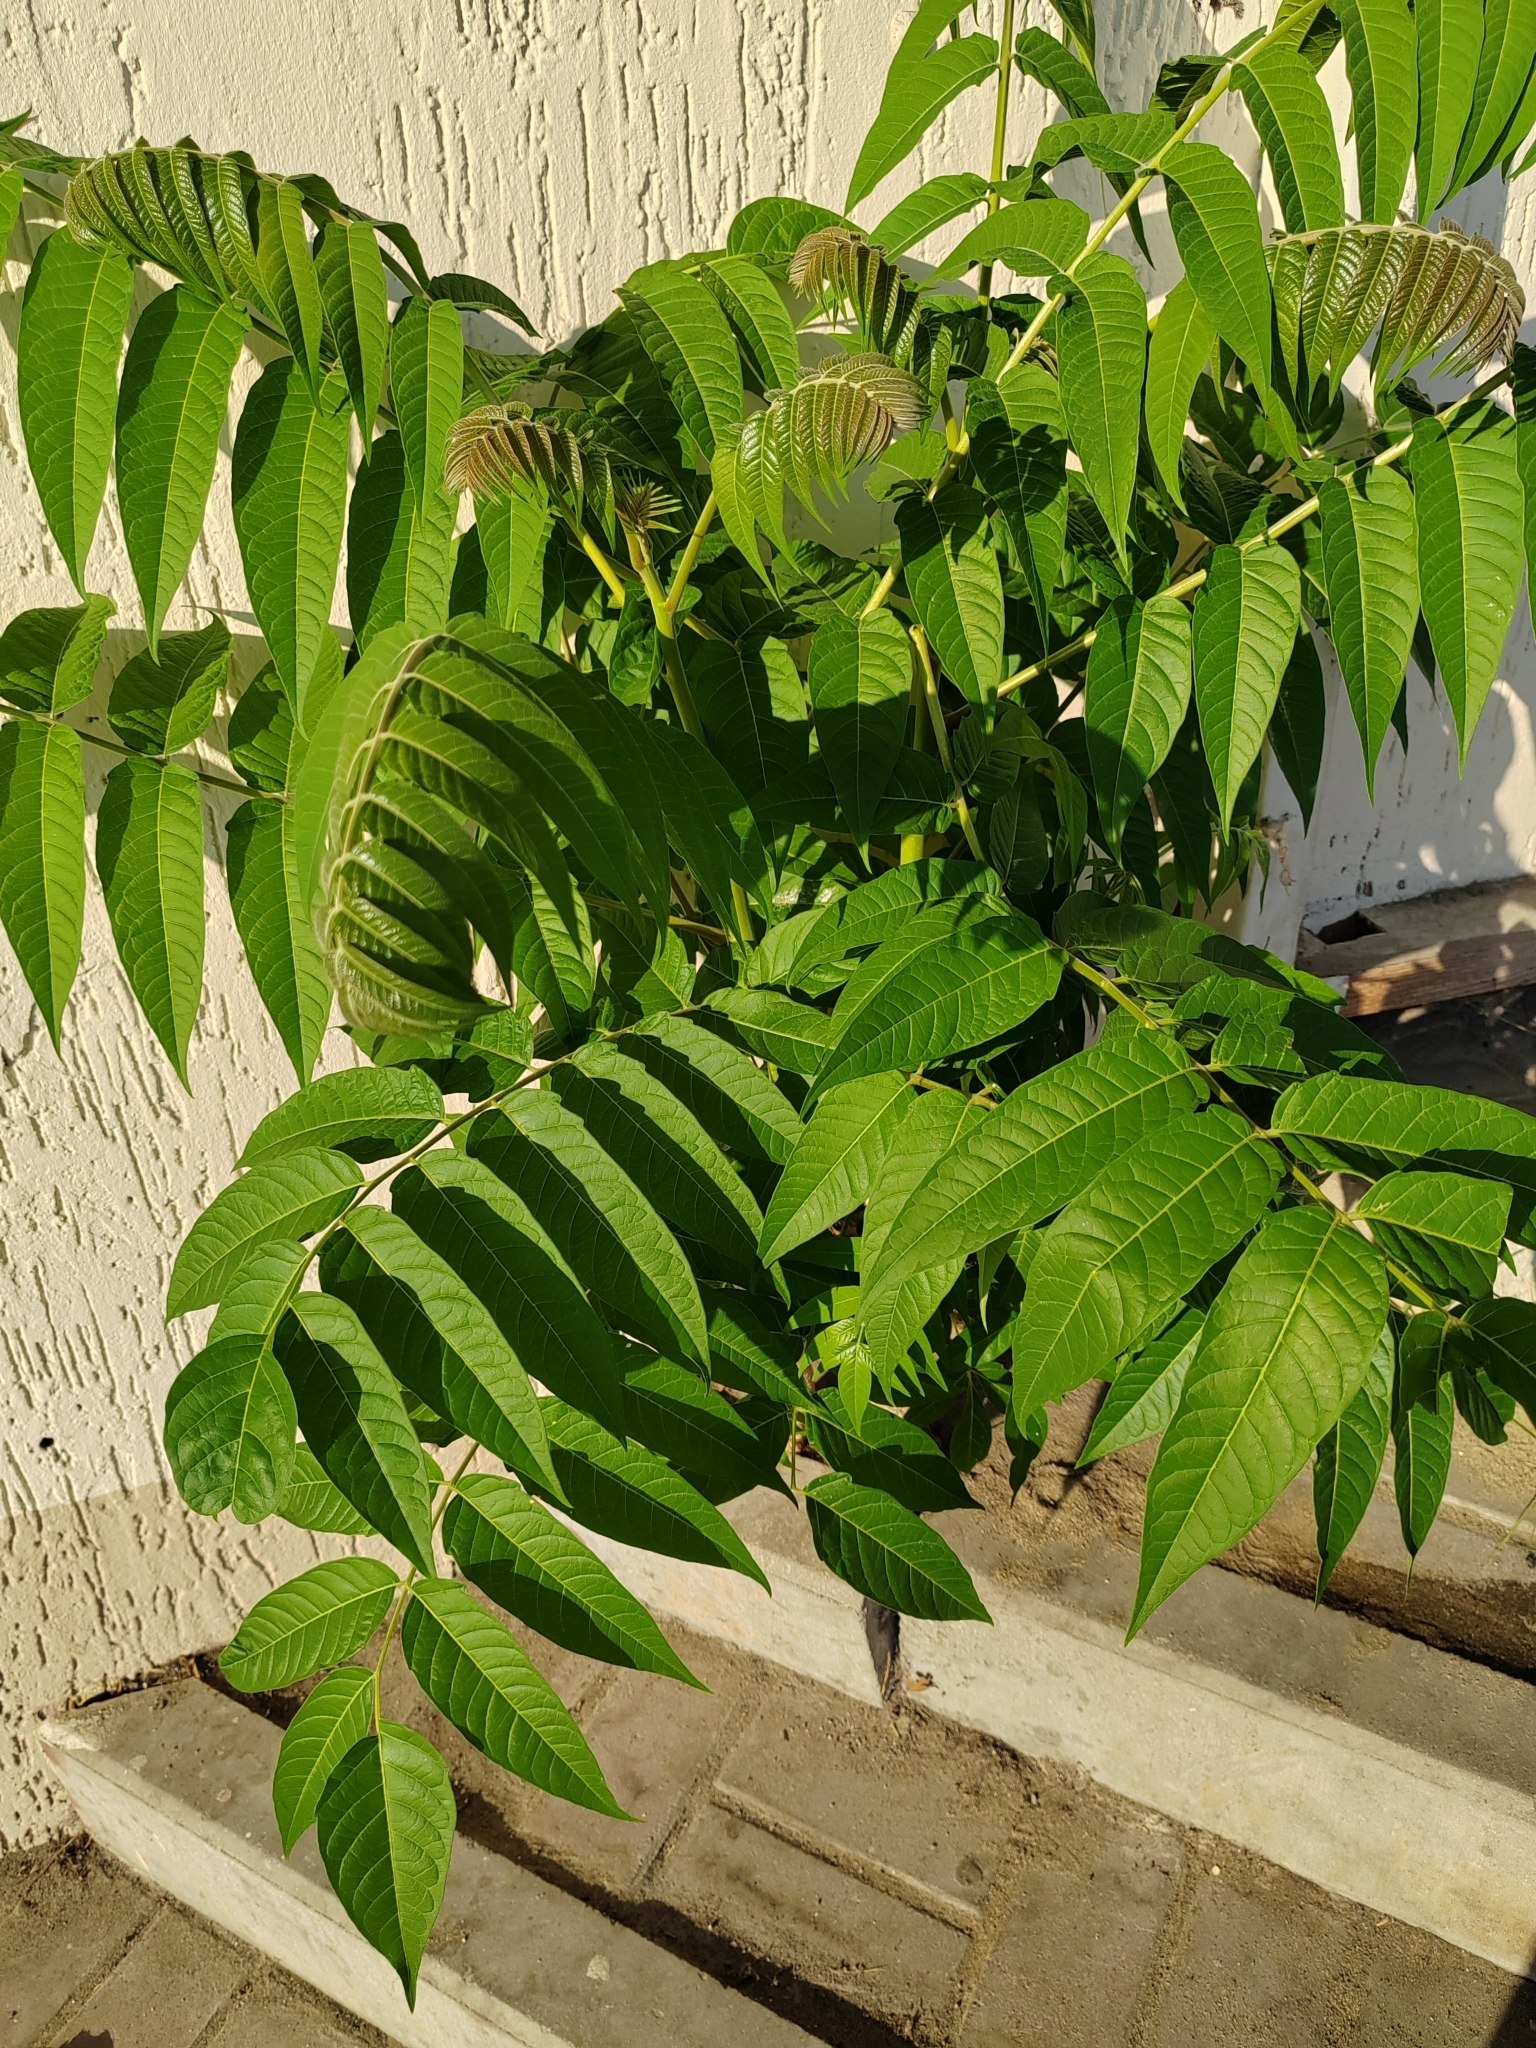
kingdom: Plantae
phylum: Tracheophyta
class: Magnoliopsida
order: Sapindales
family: Simaroubaceae
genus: Ailanthus
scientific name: Ailanthus altissima
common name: Tree-of-heaven
